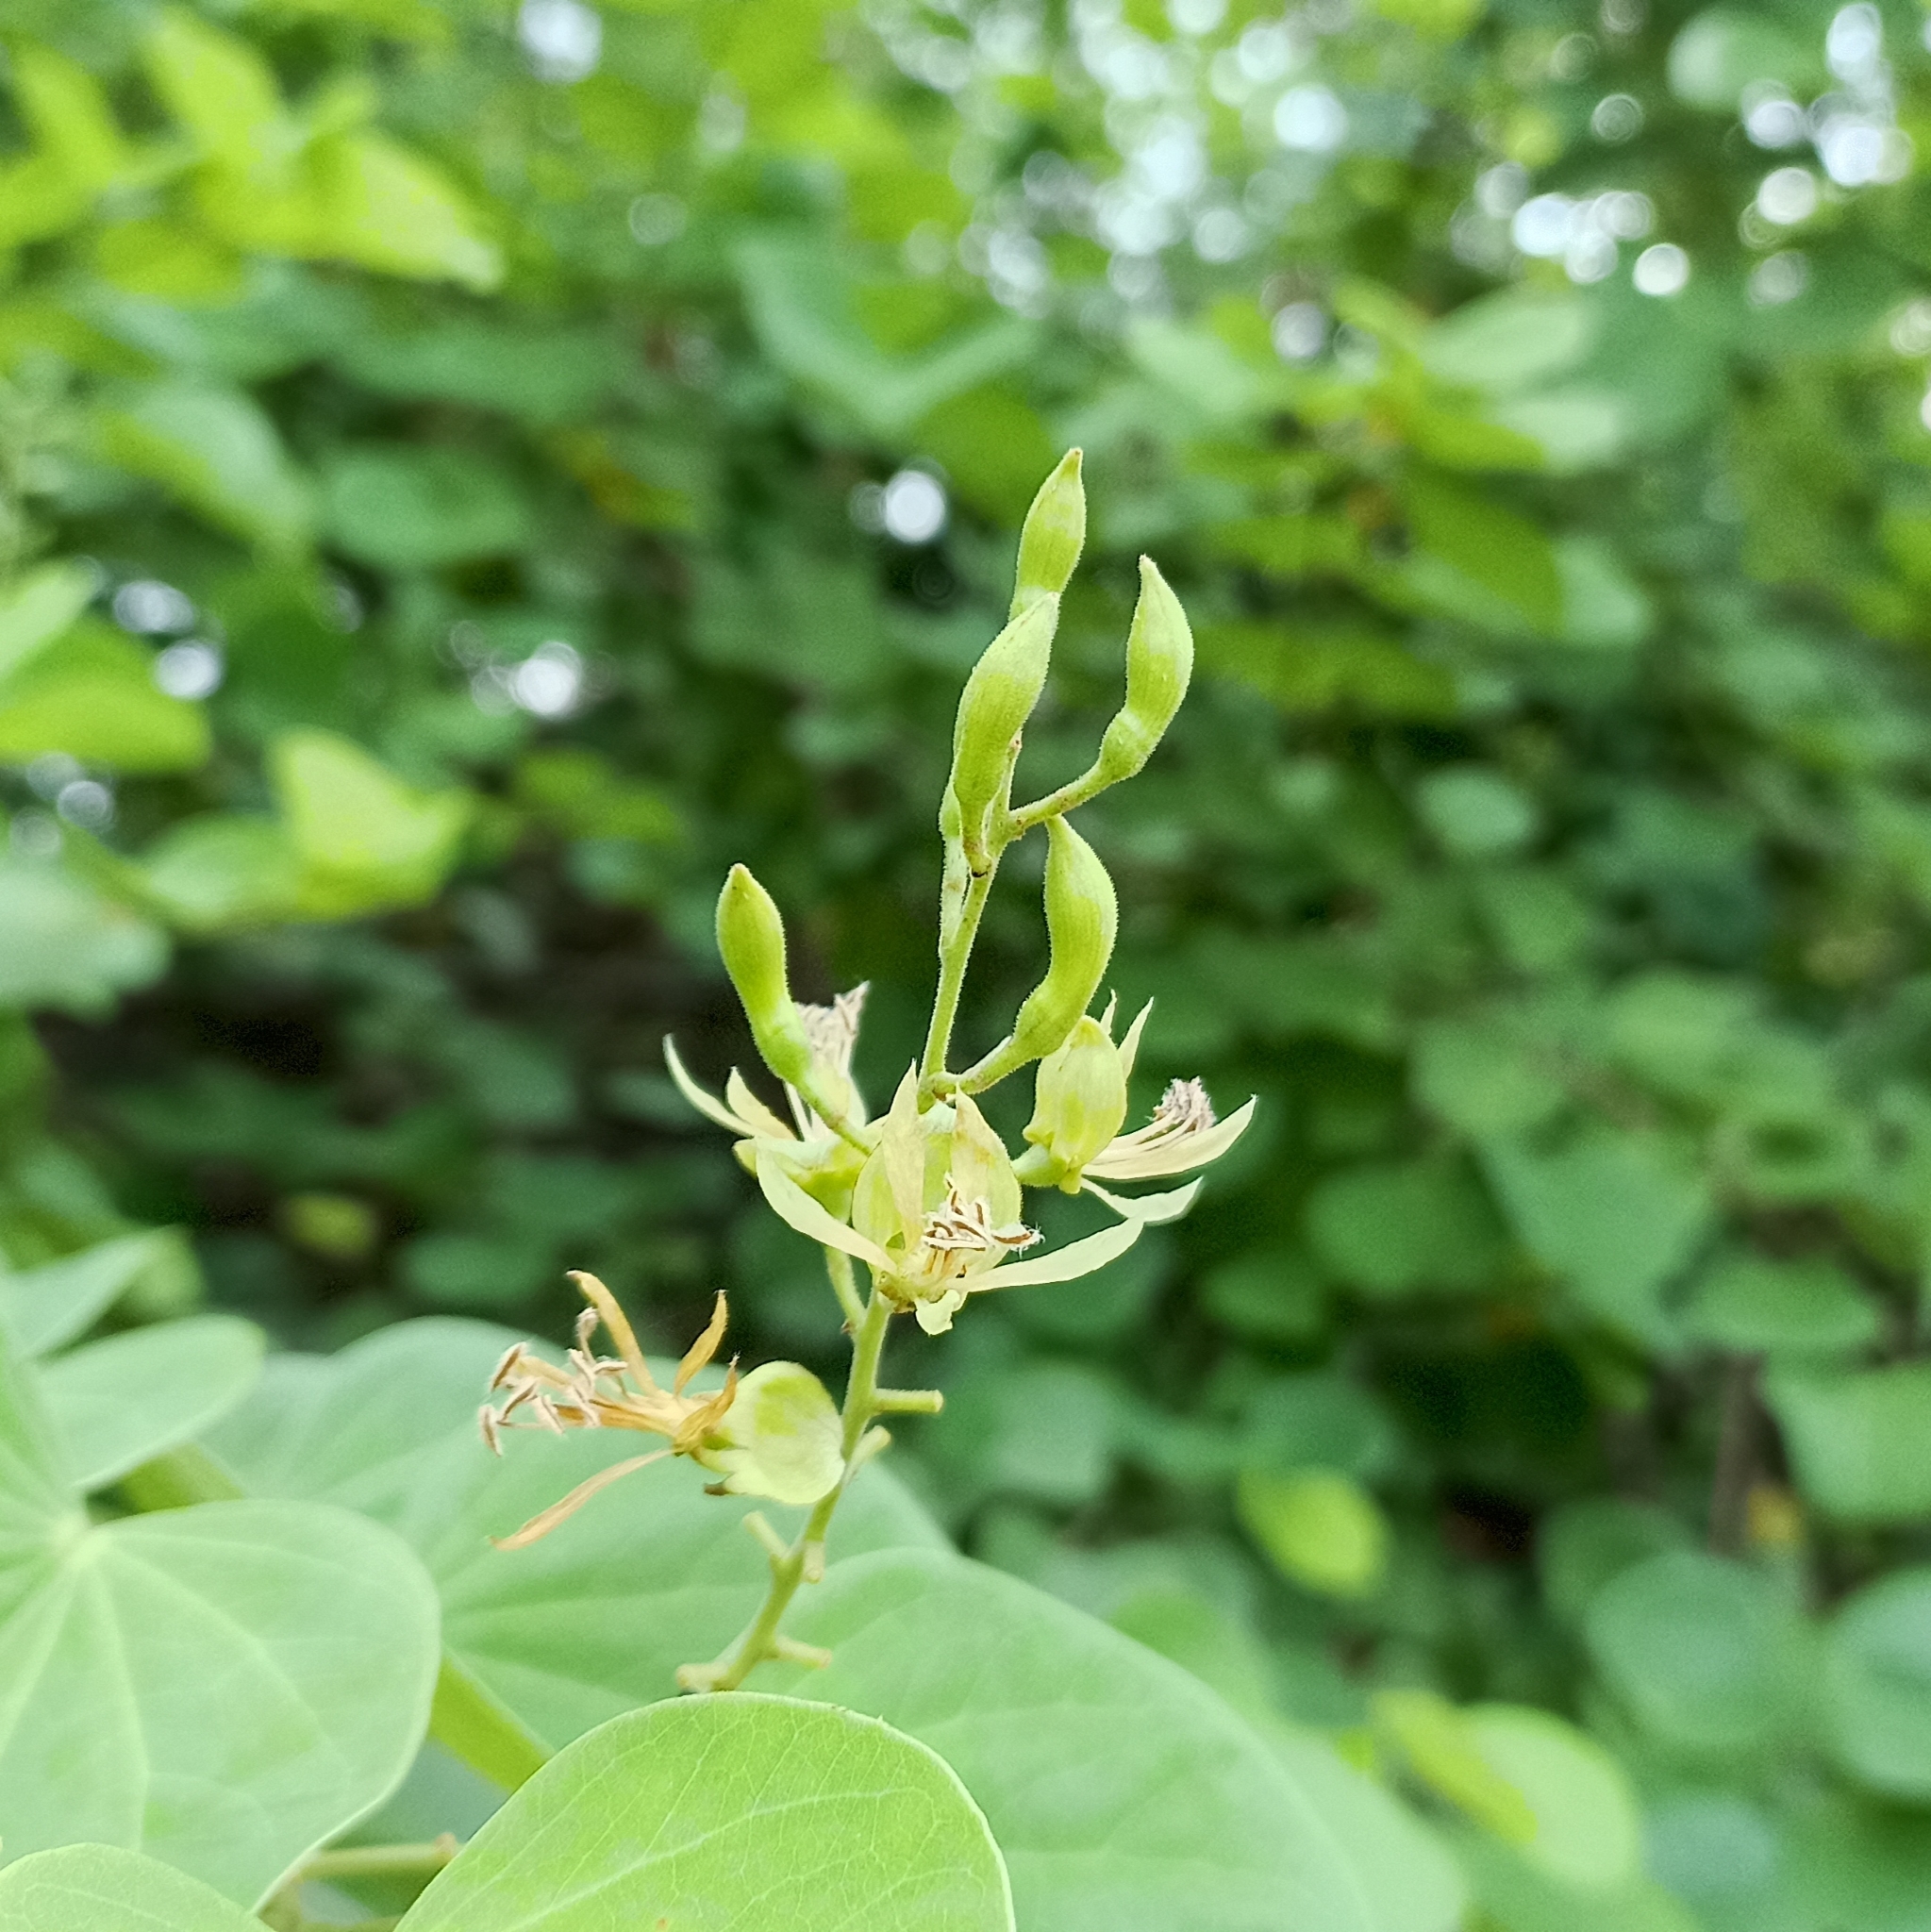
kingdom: Plantae
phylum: Tracheophyta
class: Magnoliopsida
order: Fabales
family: Fabaceae
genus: Bauhinia
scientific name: Bauhinia racemosa
